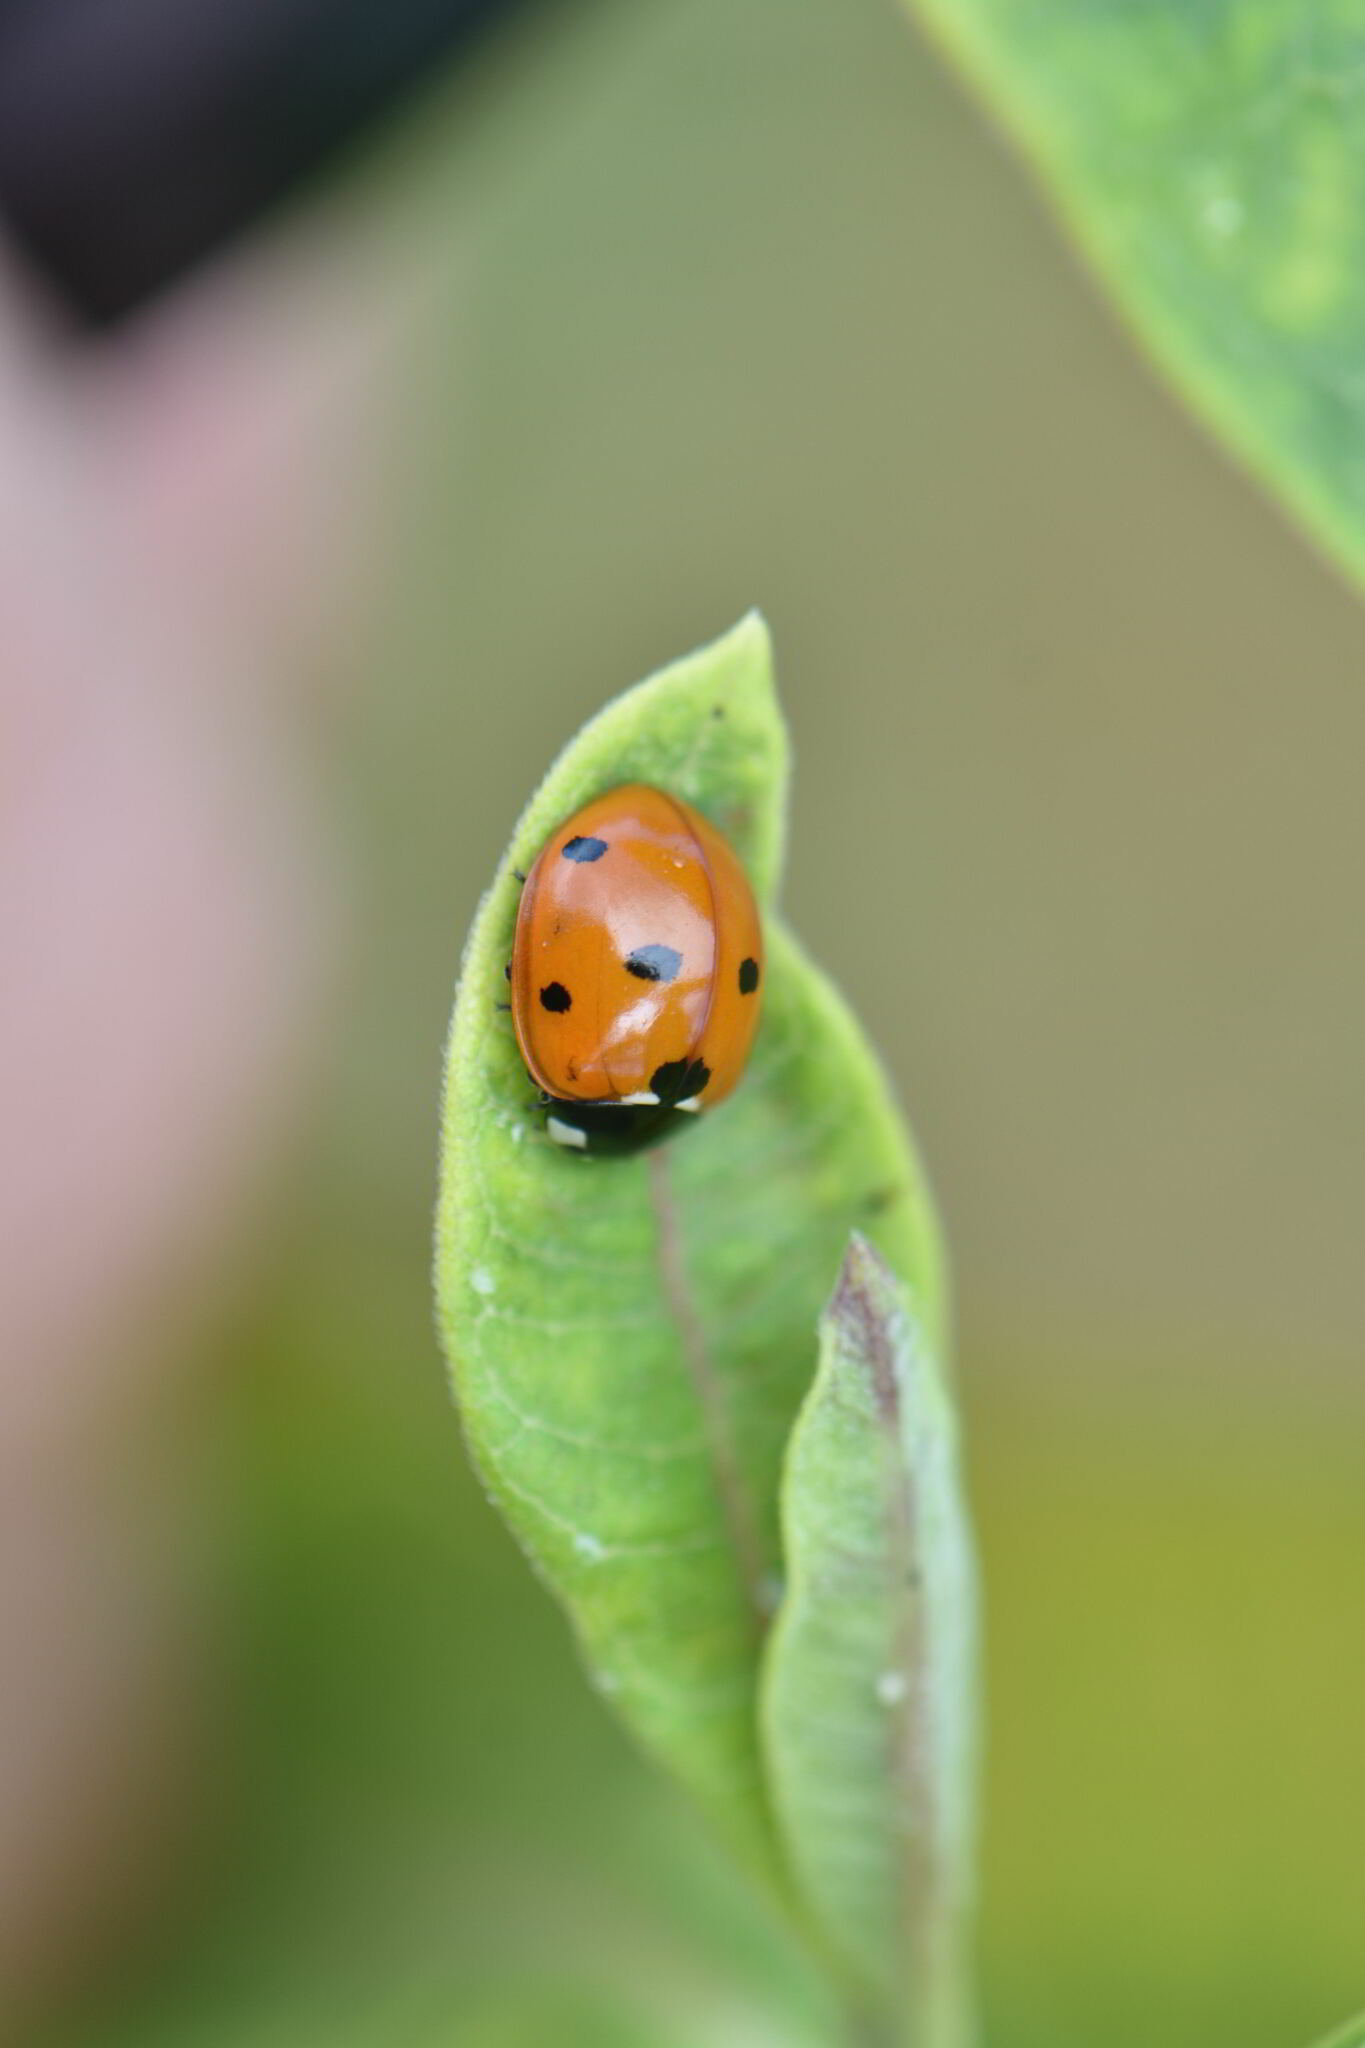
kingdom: Animalia
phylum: Arthropoda
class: Insecta
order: Coleoptera
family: Coccinellidae
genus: Coccinella
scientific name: Coccinella septempunctata
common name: Sevenspotted lady beetle
